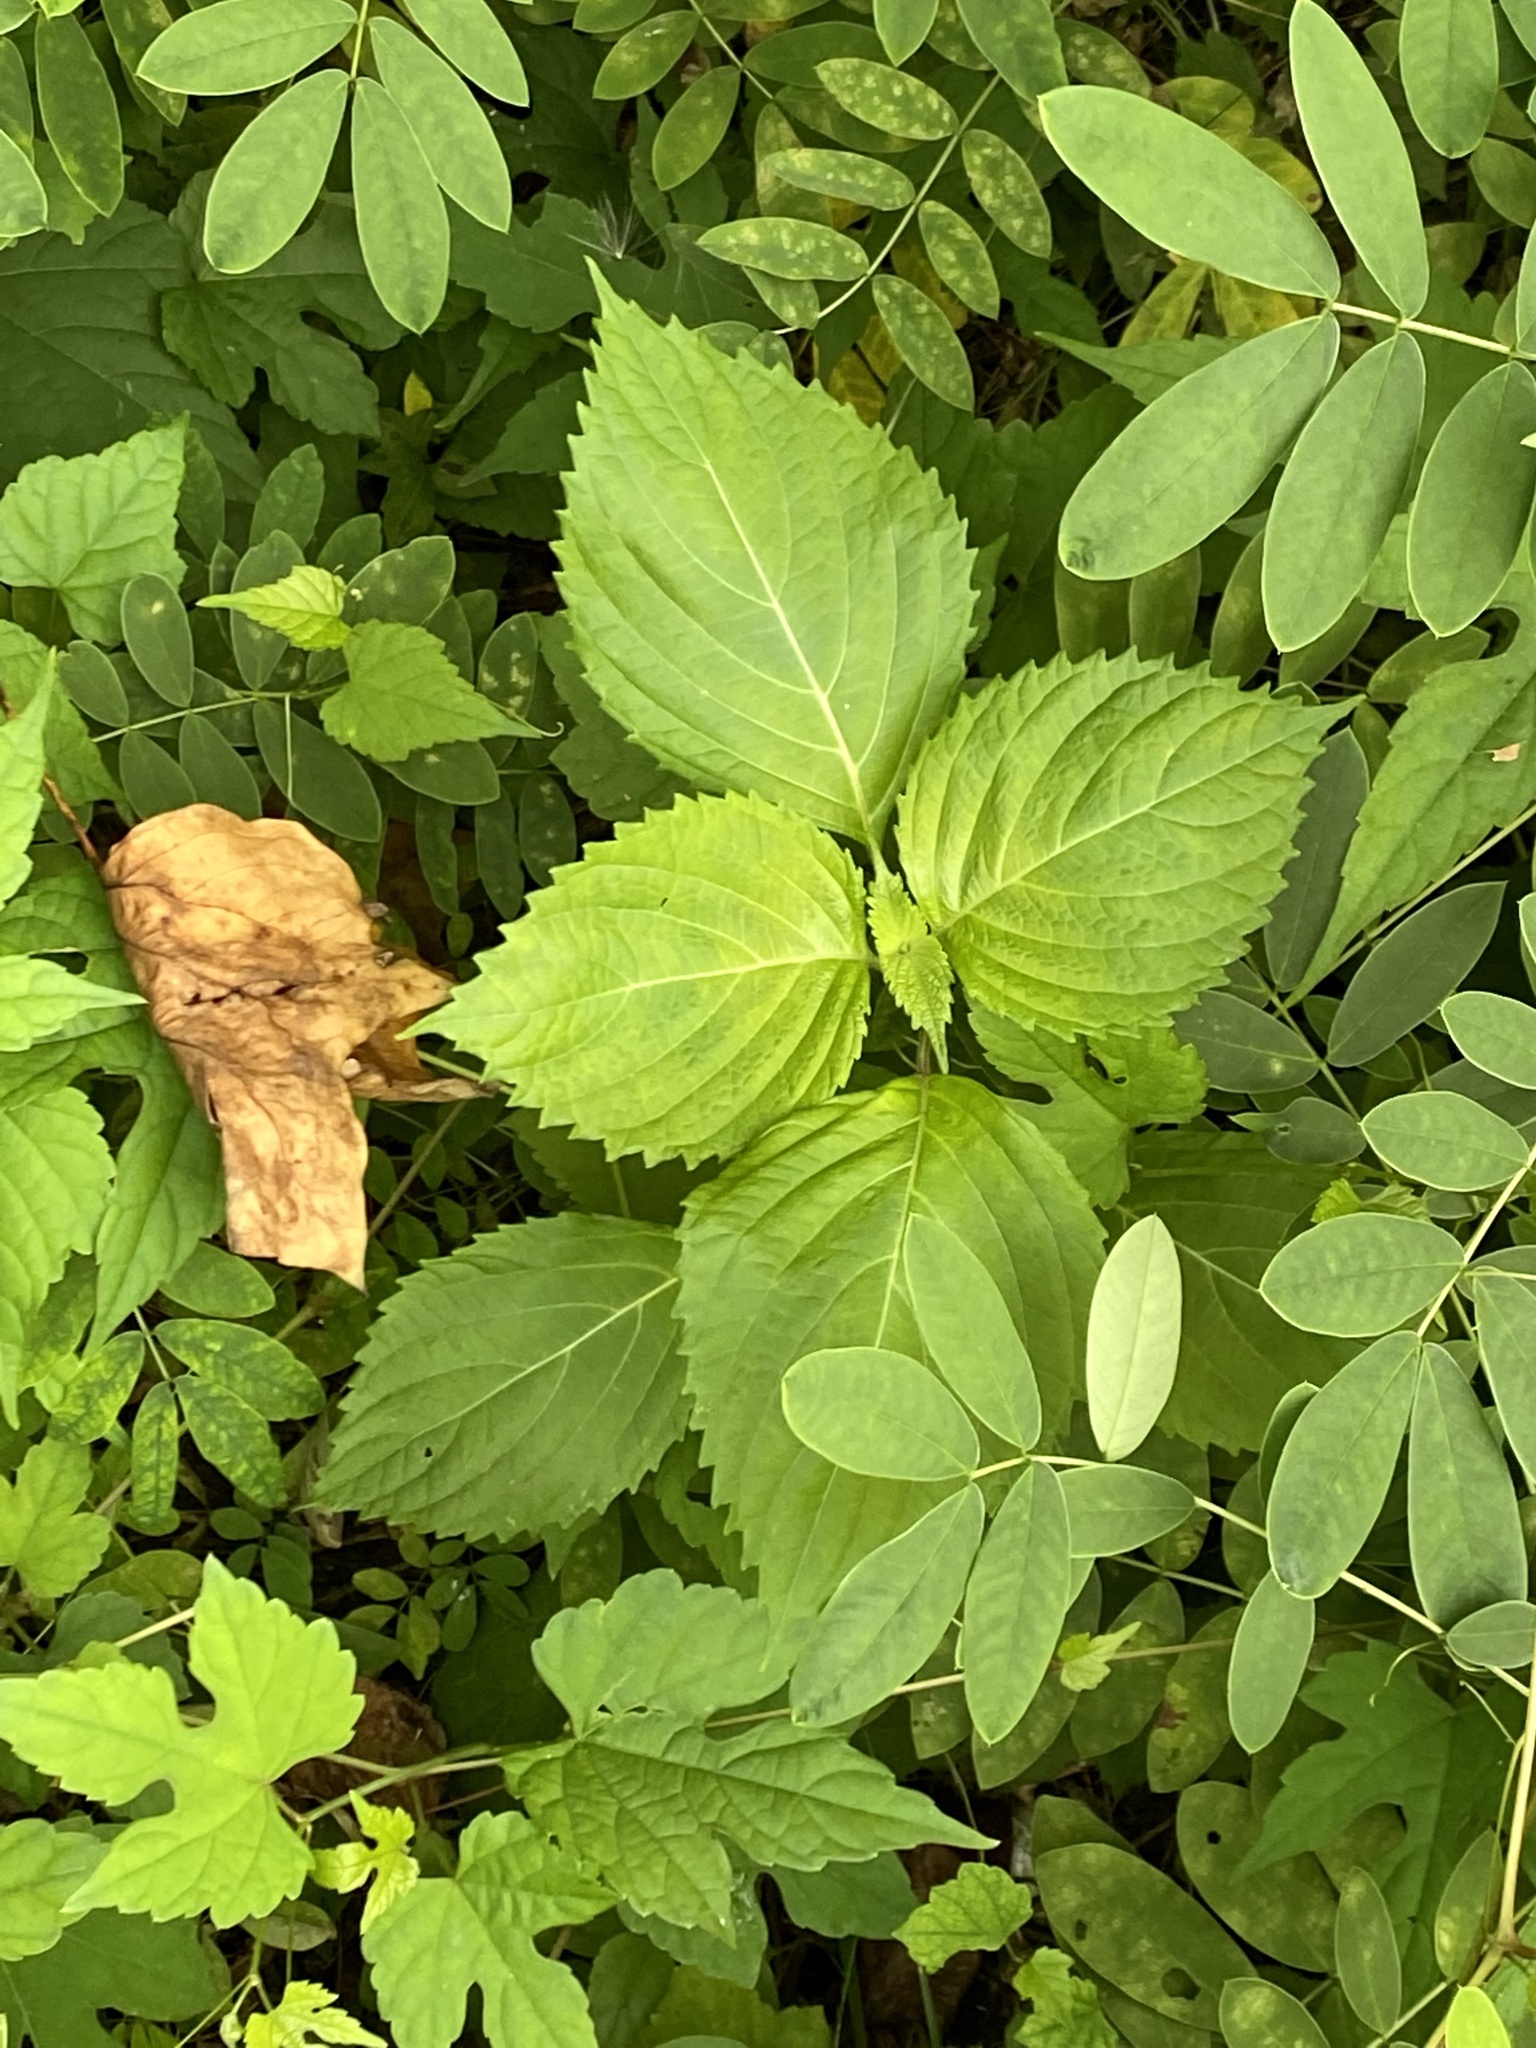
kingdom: Plantae
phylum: Tracheophyta
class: Magnoliopsida
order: Lamiales
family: Lamiaceae
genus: Perilla
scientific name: Perilla frutescens
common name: Perilla
